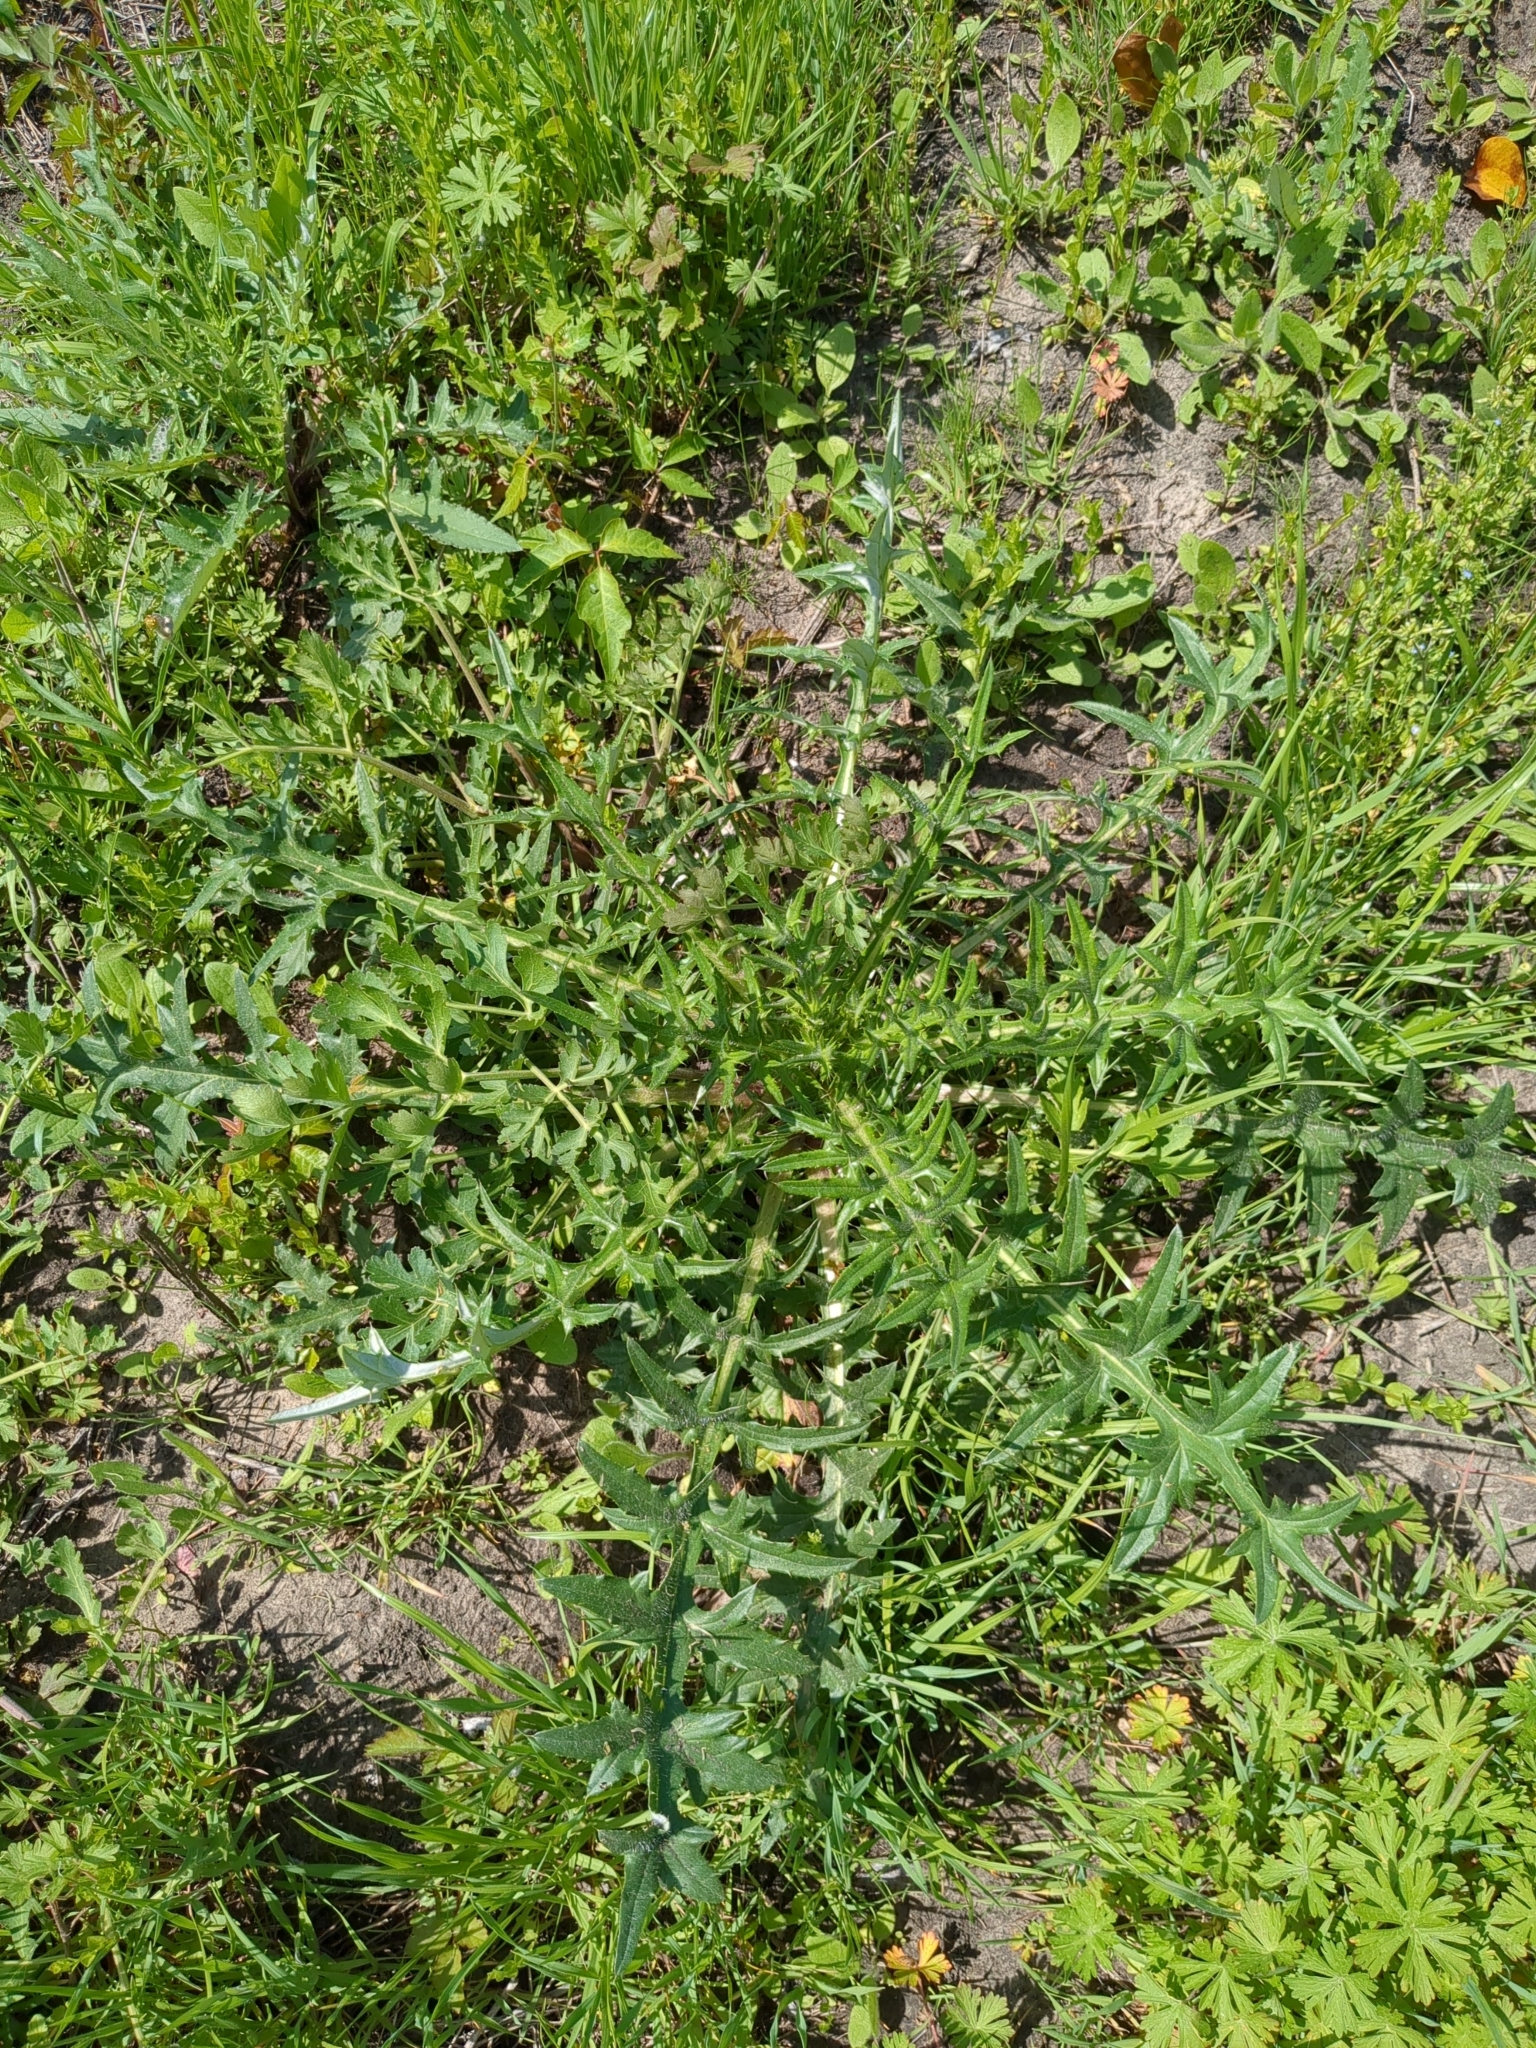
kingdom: Plantae
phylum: Tracheophyta
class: Magnoliopsida
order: Asterales
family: Asteraceae
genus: Cirsium
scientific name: Cirsium texanum
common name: Texas purple thistle
